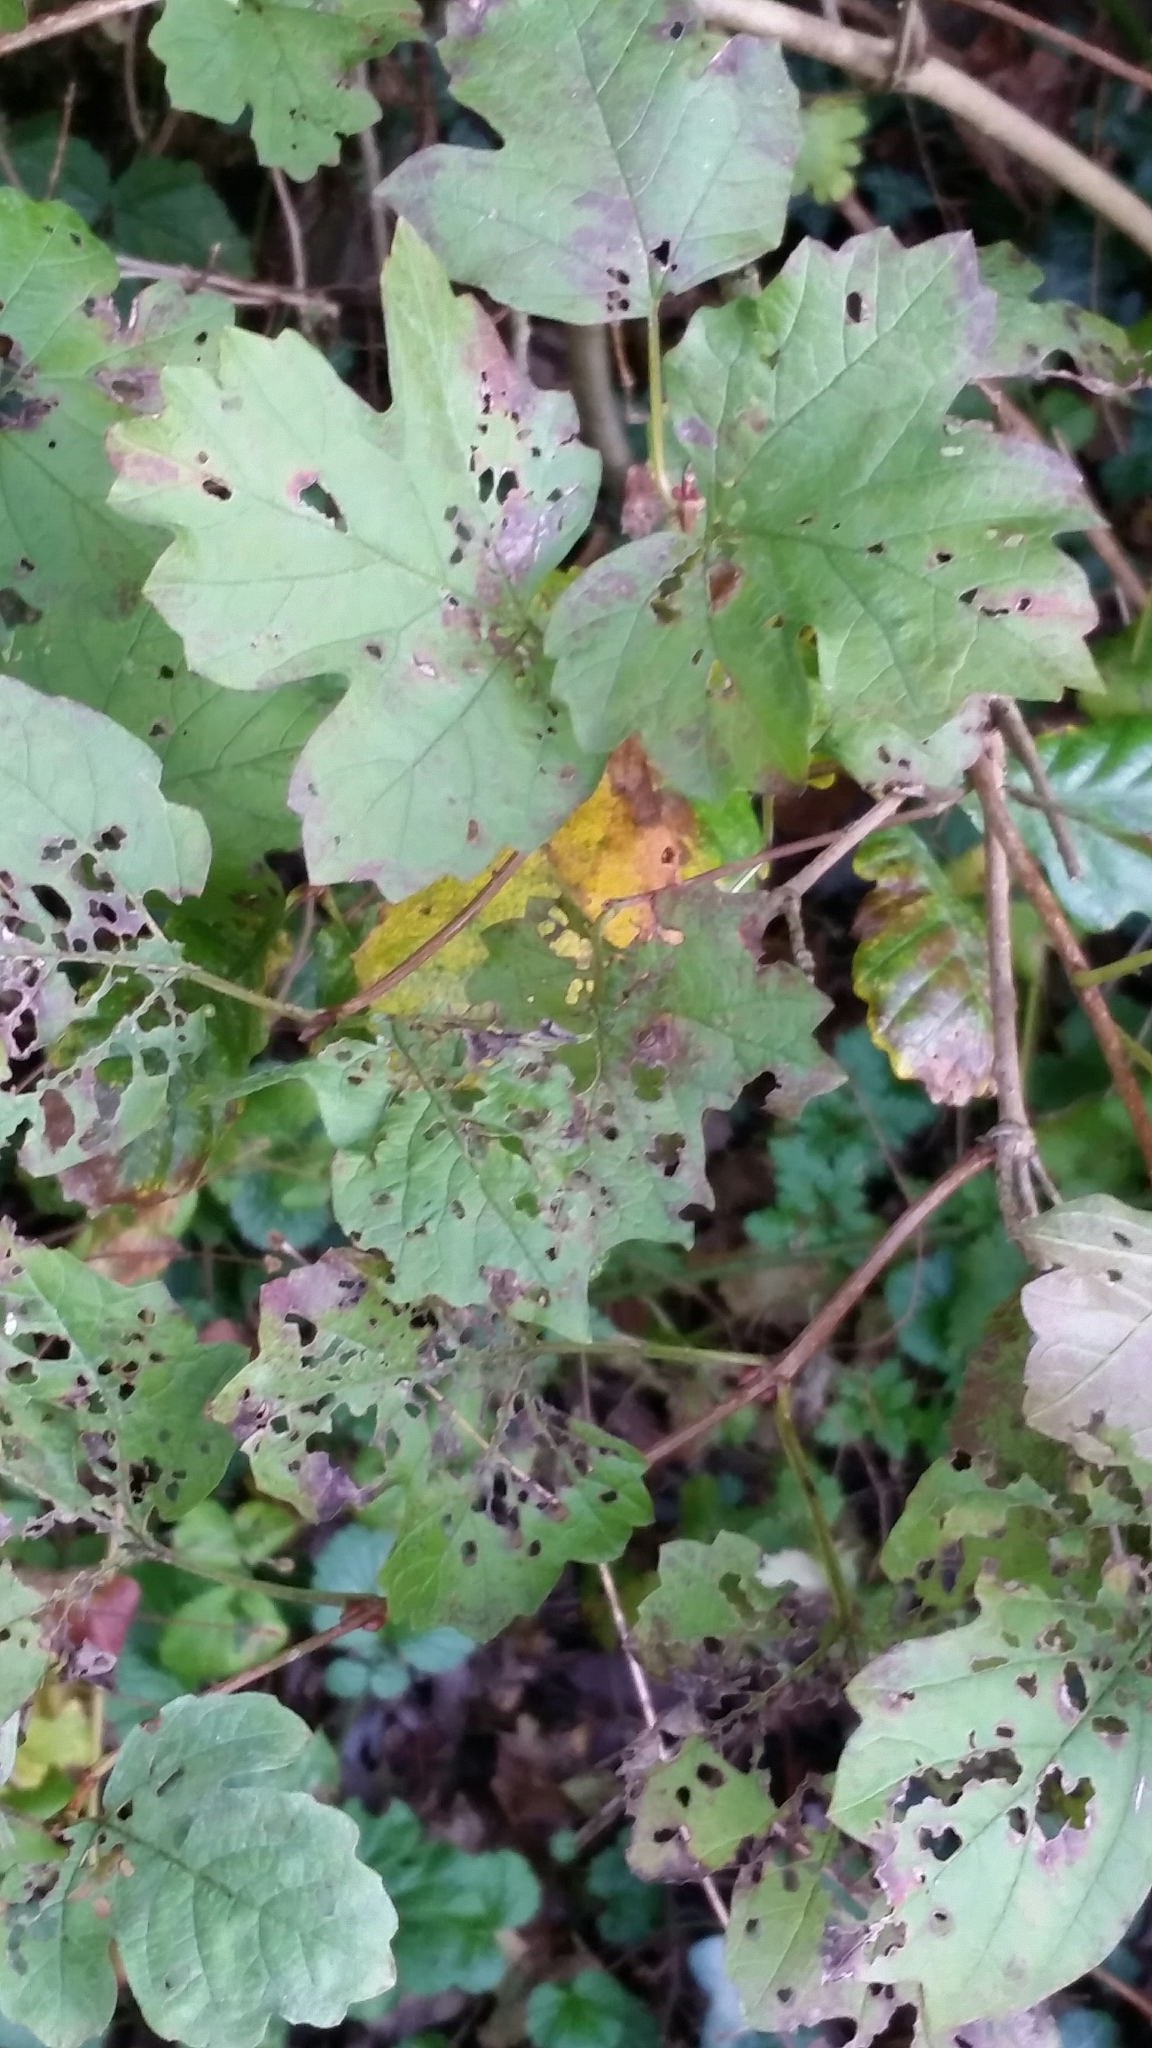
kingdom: Plantae
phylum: Tracheophyta
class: Magnoliopsida
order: Dipsacales
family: Viburnaceae
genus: Viburnum
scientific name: Viburnum opulus
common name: Guelder-rose
